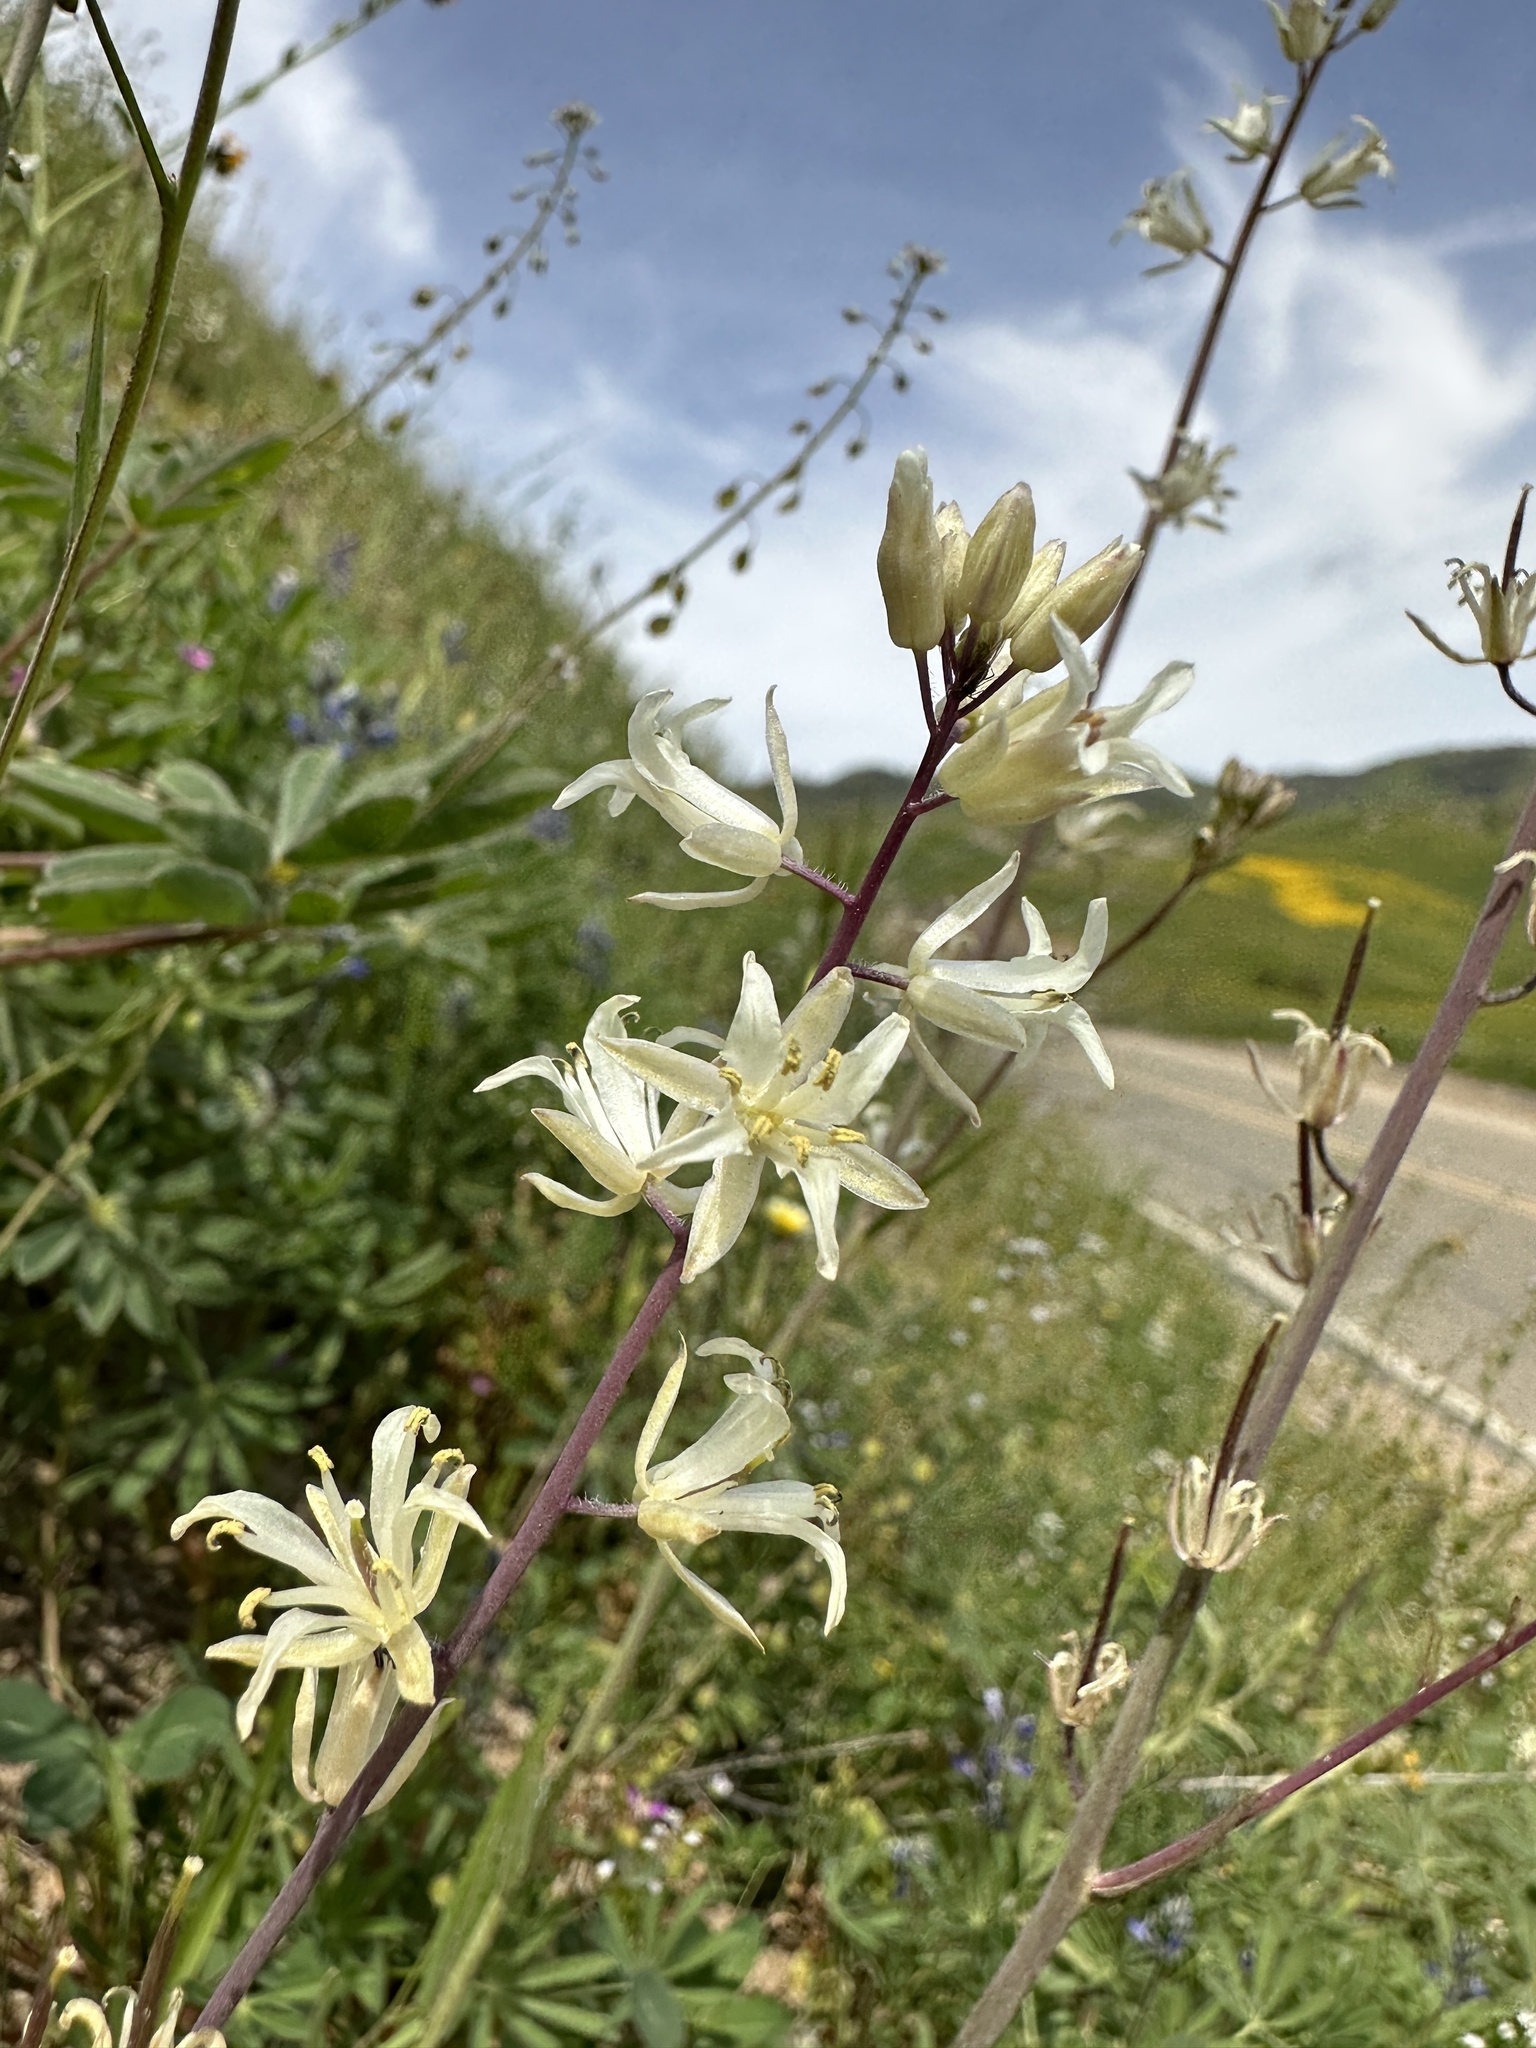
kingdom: Plantae
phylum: Tracheophyta
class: Magnoliopsida
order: Brassicales
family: Brassicaceae
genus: Streptanthus
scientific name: Streptanthus flavescens
